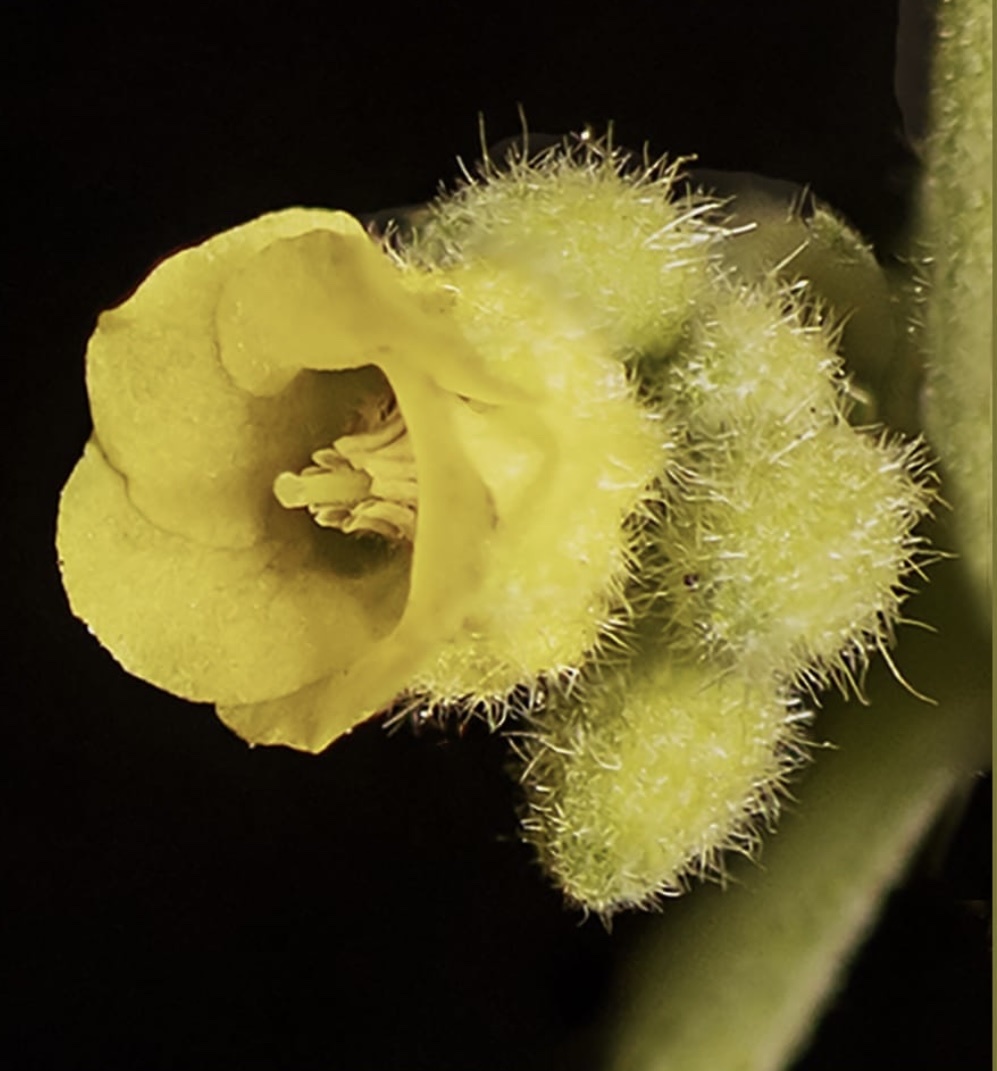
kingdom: Plantae
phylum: Tracheophyta
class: Magnoliopsida
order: Malvales
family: Malvaceae
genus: Hermannia
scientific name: Hermannia holosericea
